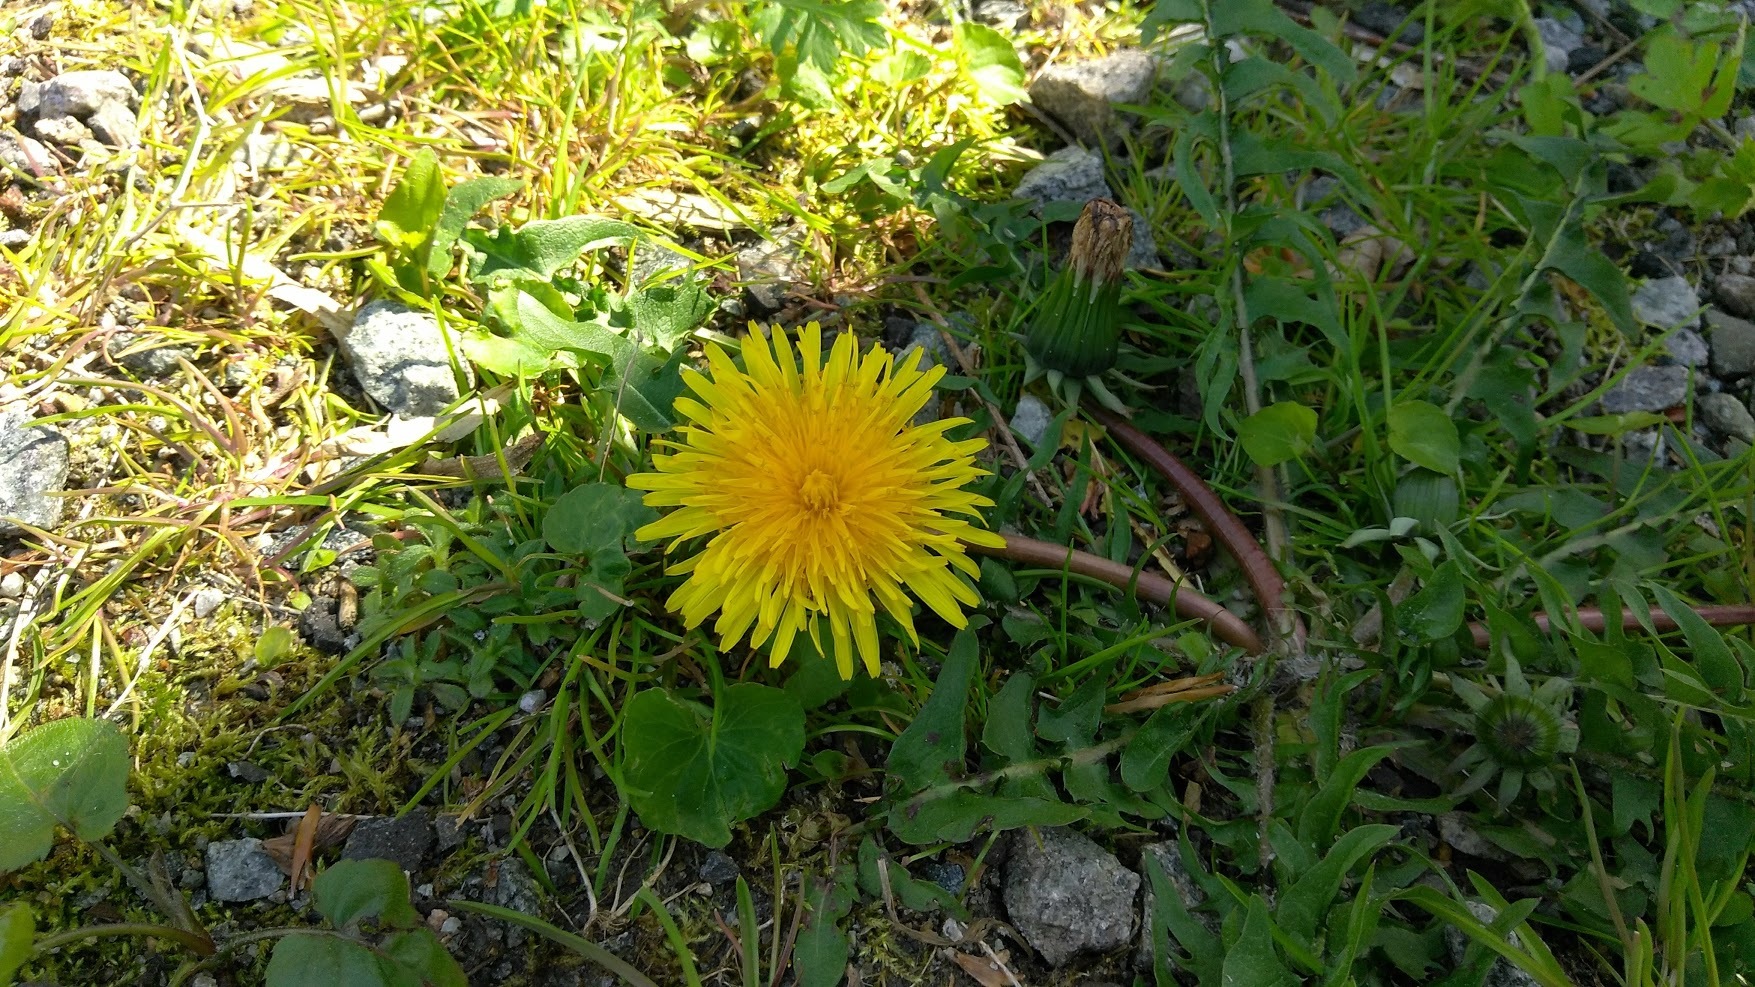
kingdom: Plantae
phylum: Tracheophyta
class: Magnoliopsida
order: Asterales
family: Asteraceae
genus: Taraxacum
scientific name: Taraxacum
